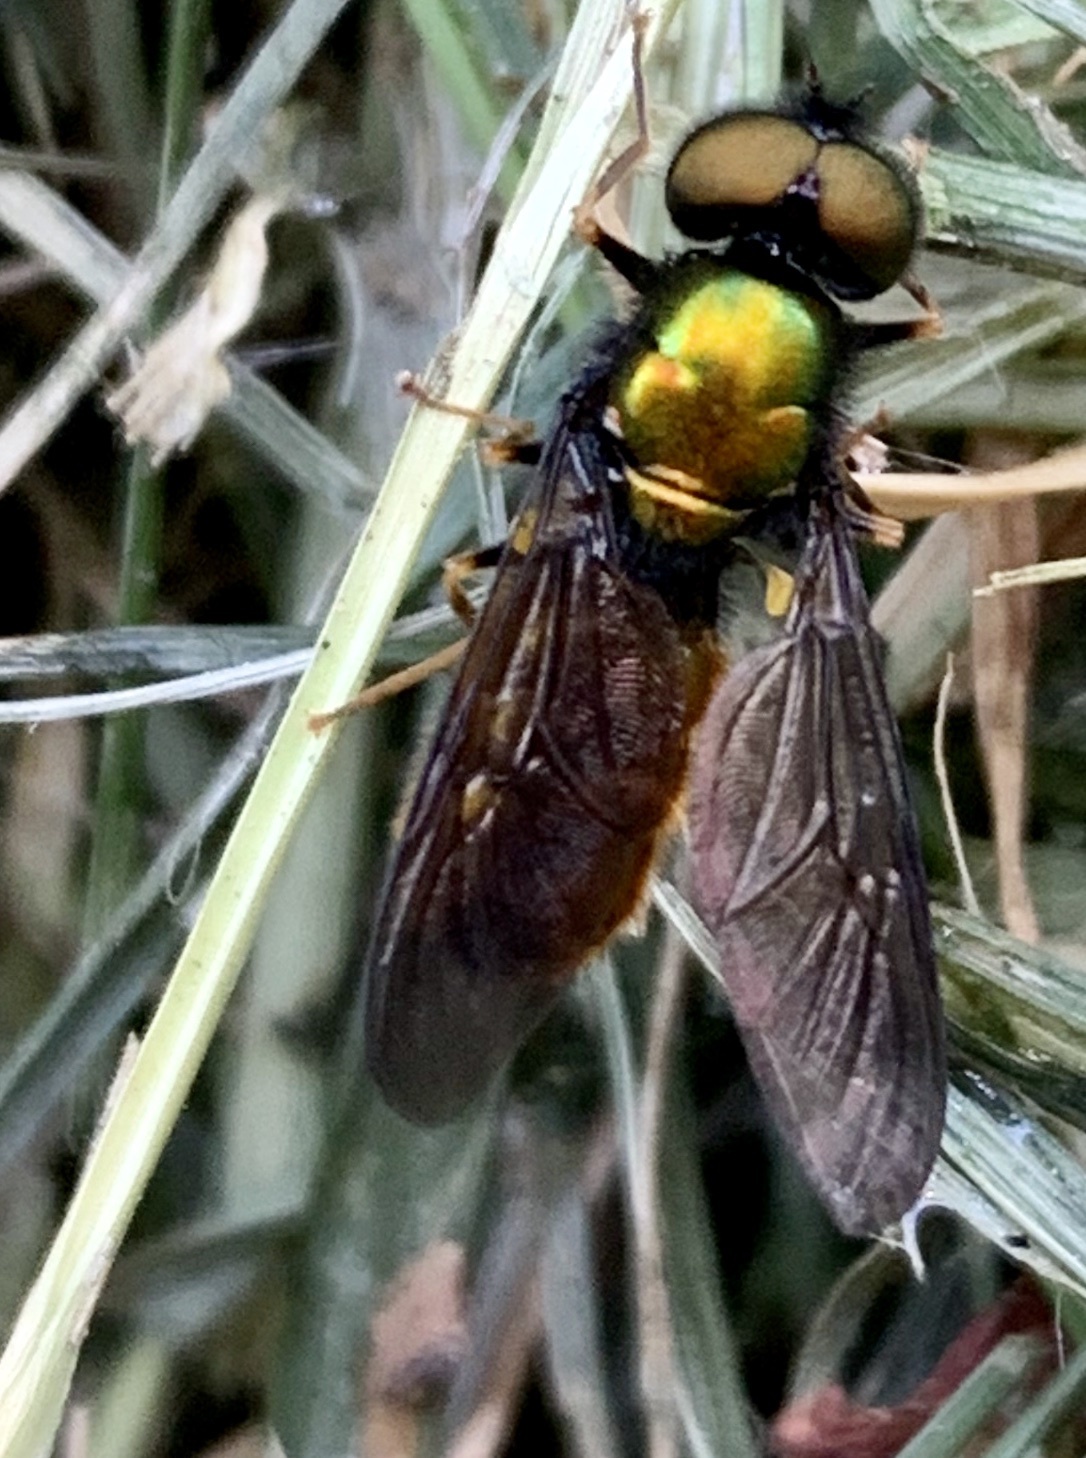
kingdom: Animalia
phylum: Arthropoda
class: Insecta
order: Diptera
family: Stratiomyidae
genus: Chloromyia
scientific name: Chloromyia speciosa
